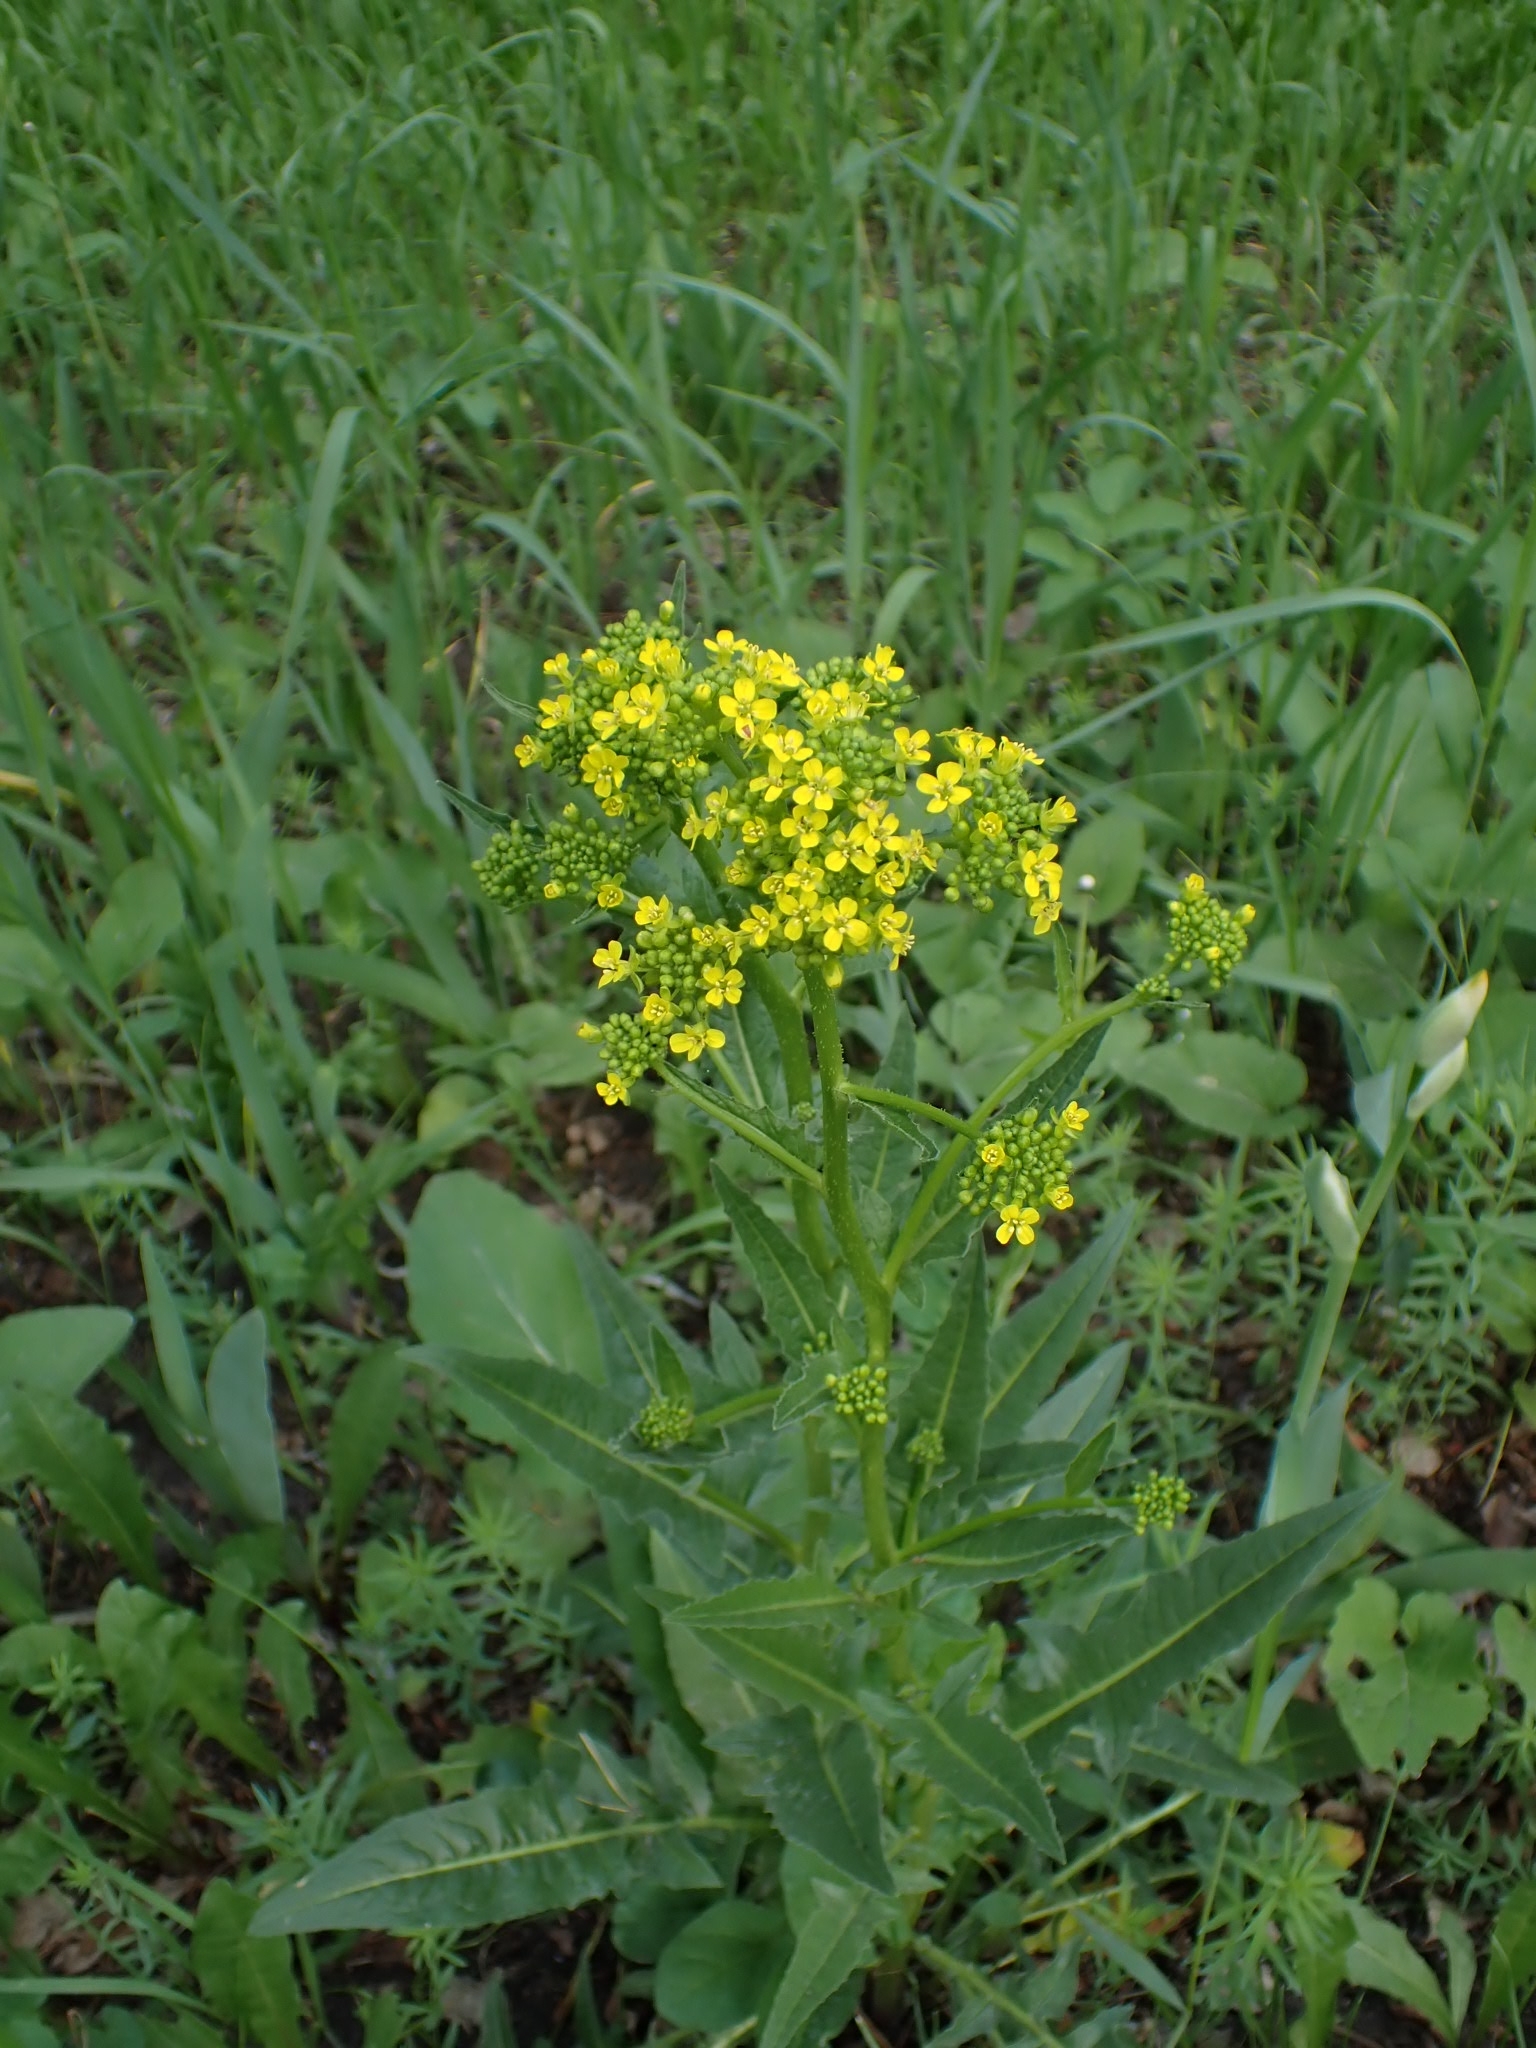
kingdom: Plantae
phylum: Tracheophyta
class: Magnoliopsida
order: Brassicales
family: Brassicaceae
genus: Bunias
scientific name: Bunias orientalis
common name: Warty-cabbage
